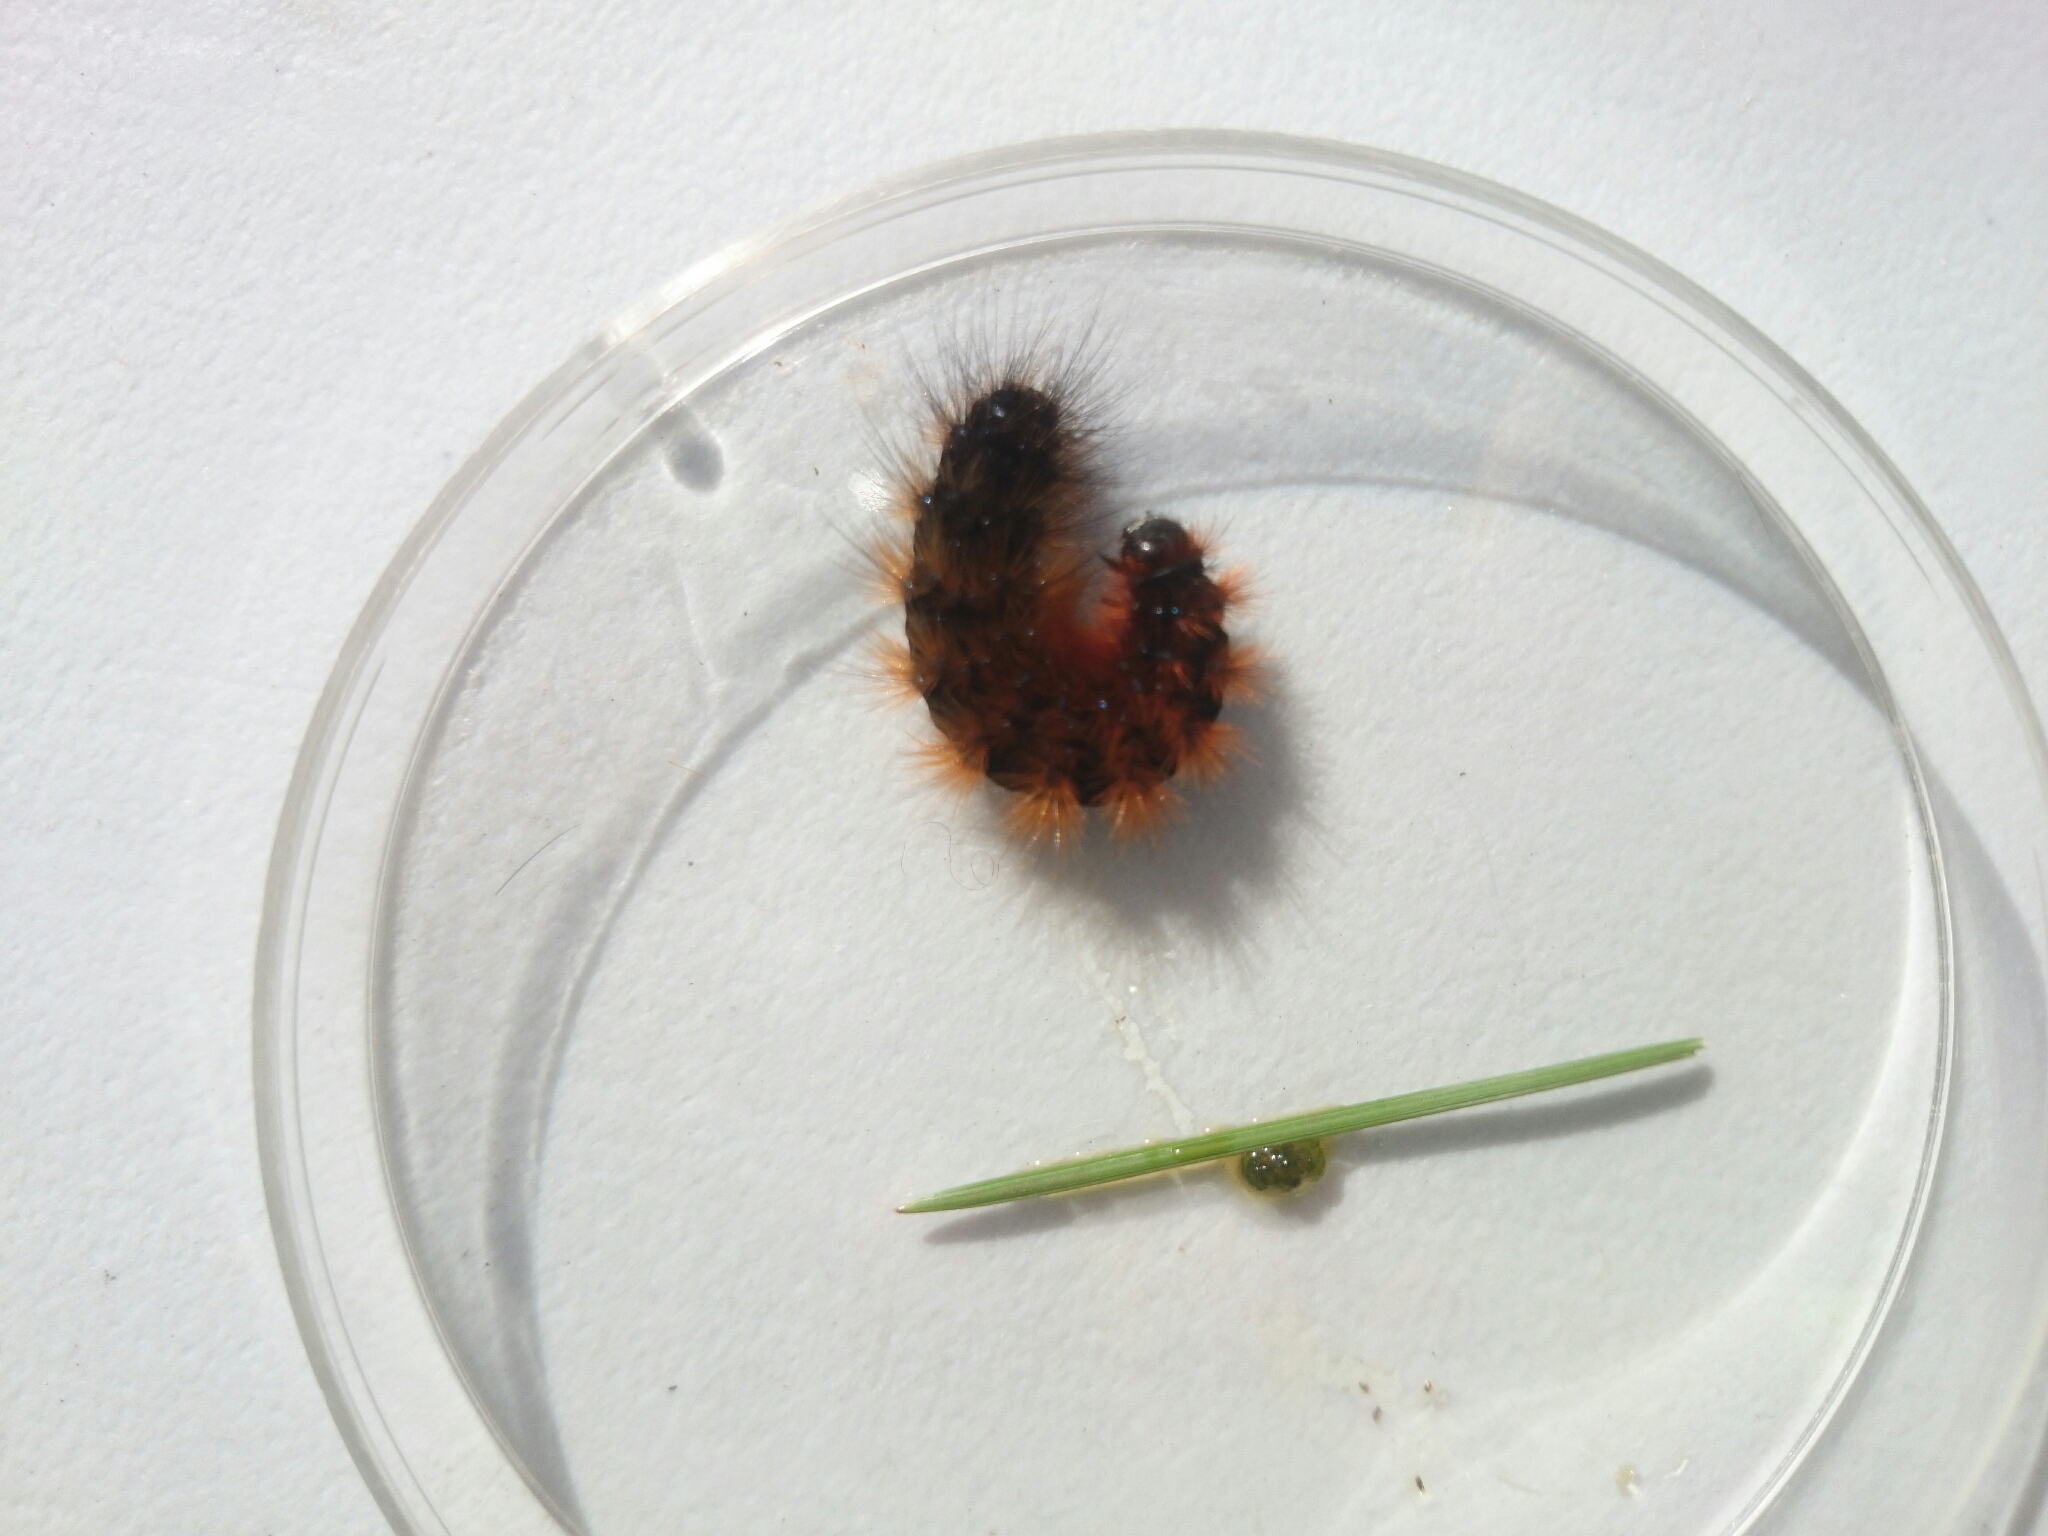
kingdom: Animalia
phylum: Arthropoda
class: Insecta
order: Lepidoptera
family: Erebidae
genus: Ardices
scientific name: Ardices glatignyi
